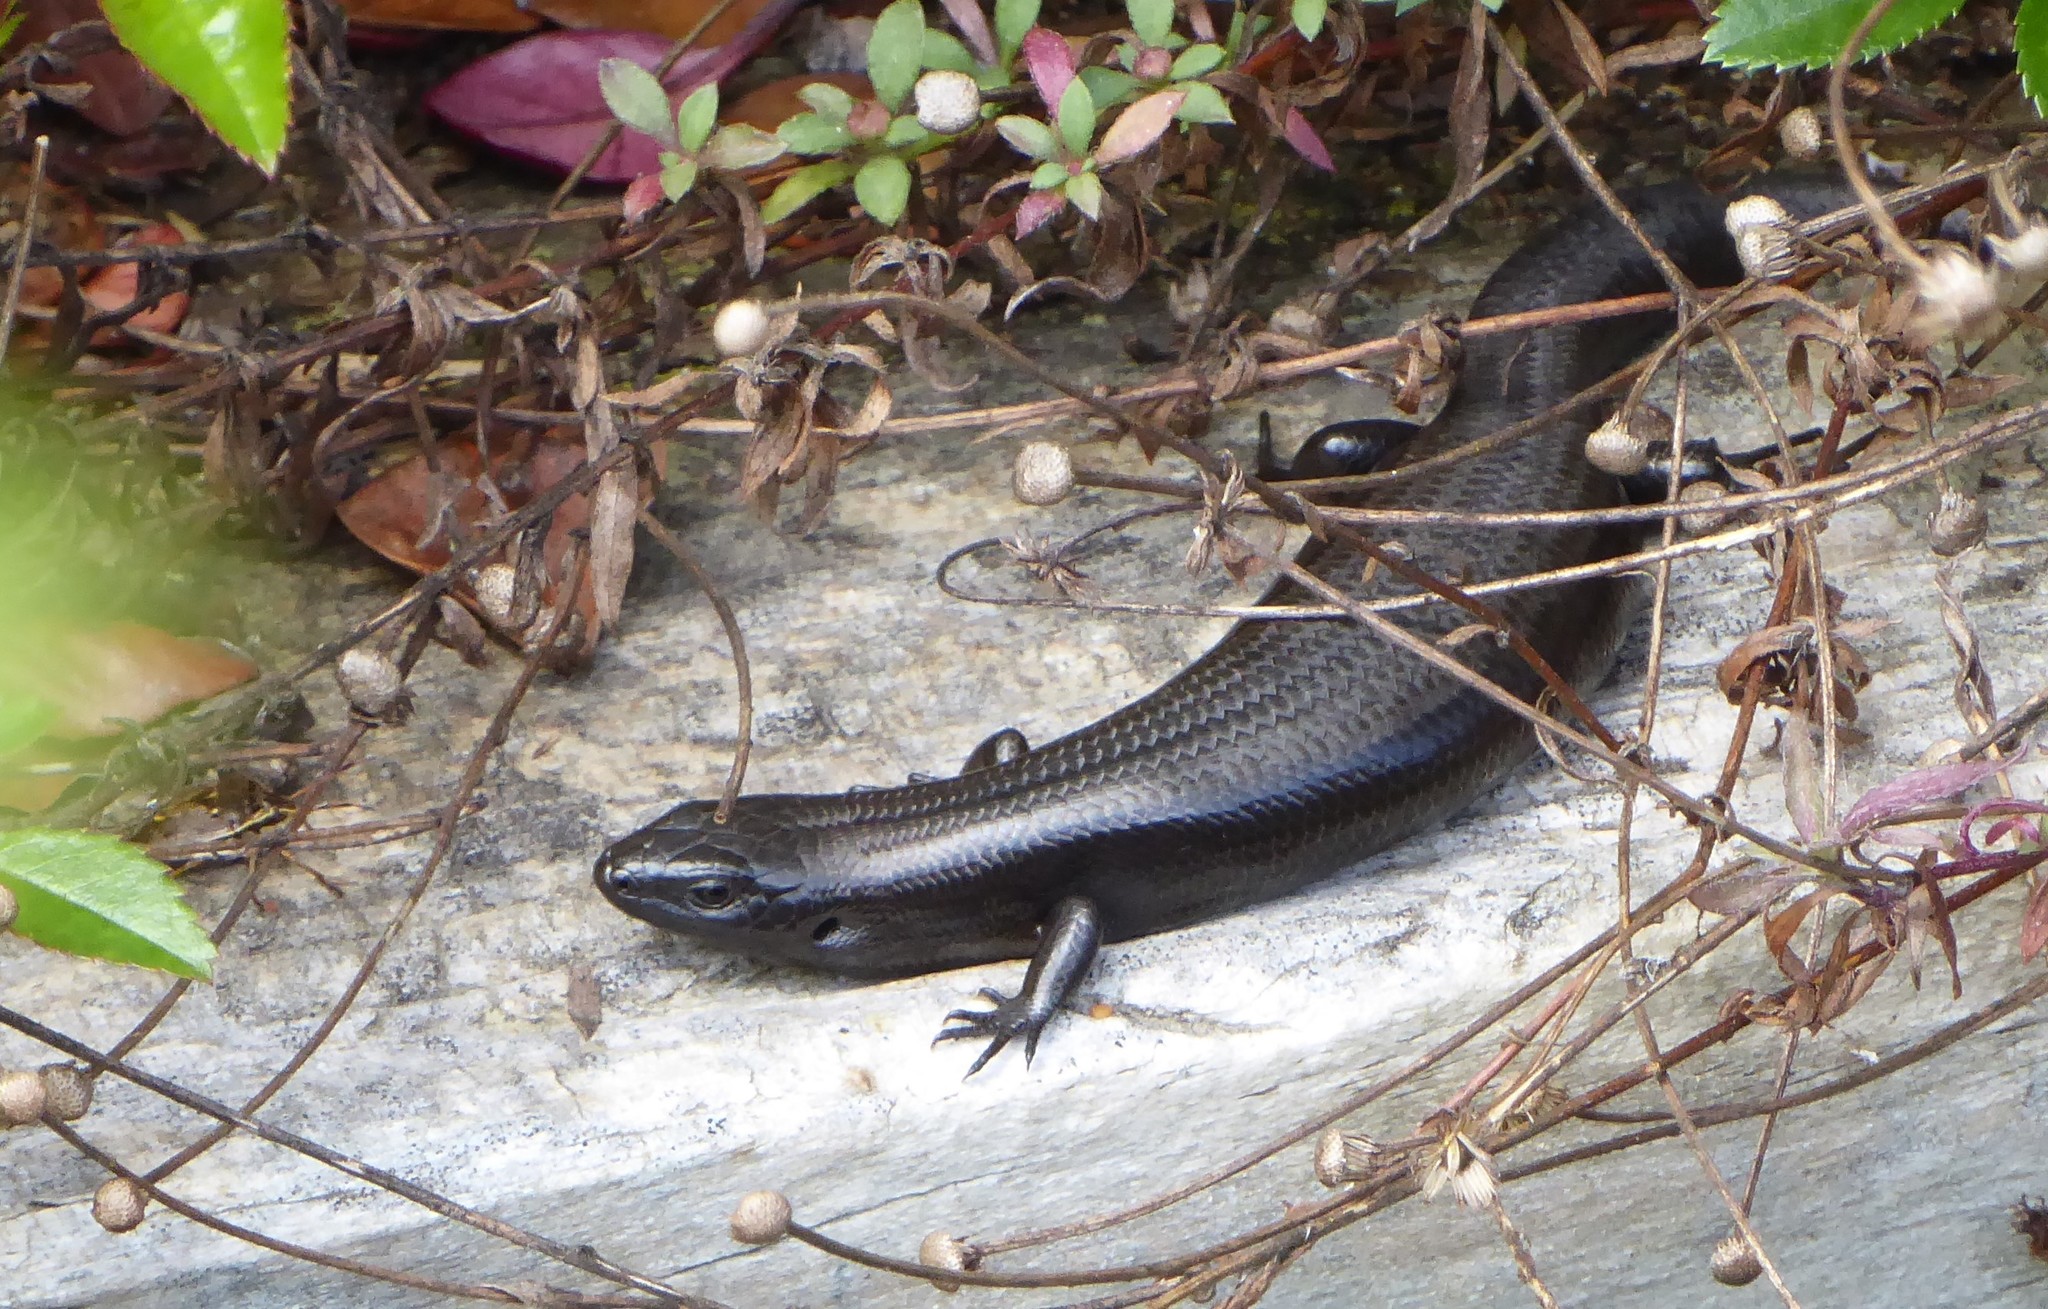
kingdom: Animalia
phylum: Chordata
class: Squamata
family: Scincidae
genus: Oligosoma
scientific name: Oligosoma polychroma
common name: Common new zealand skink
